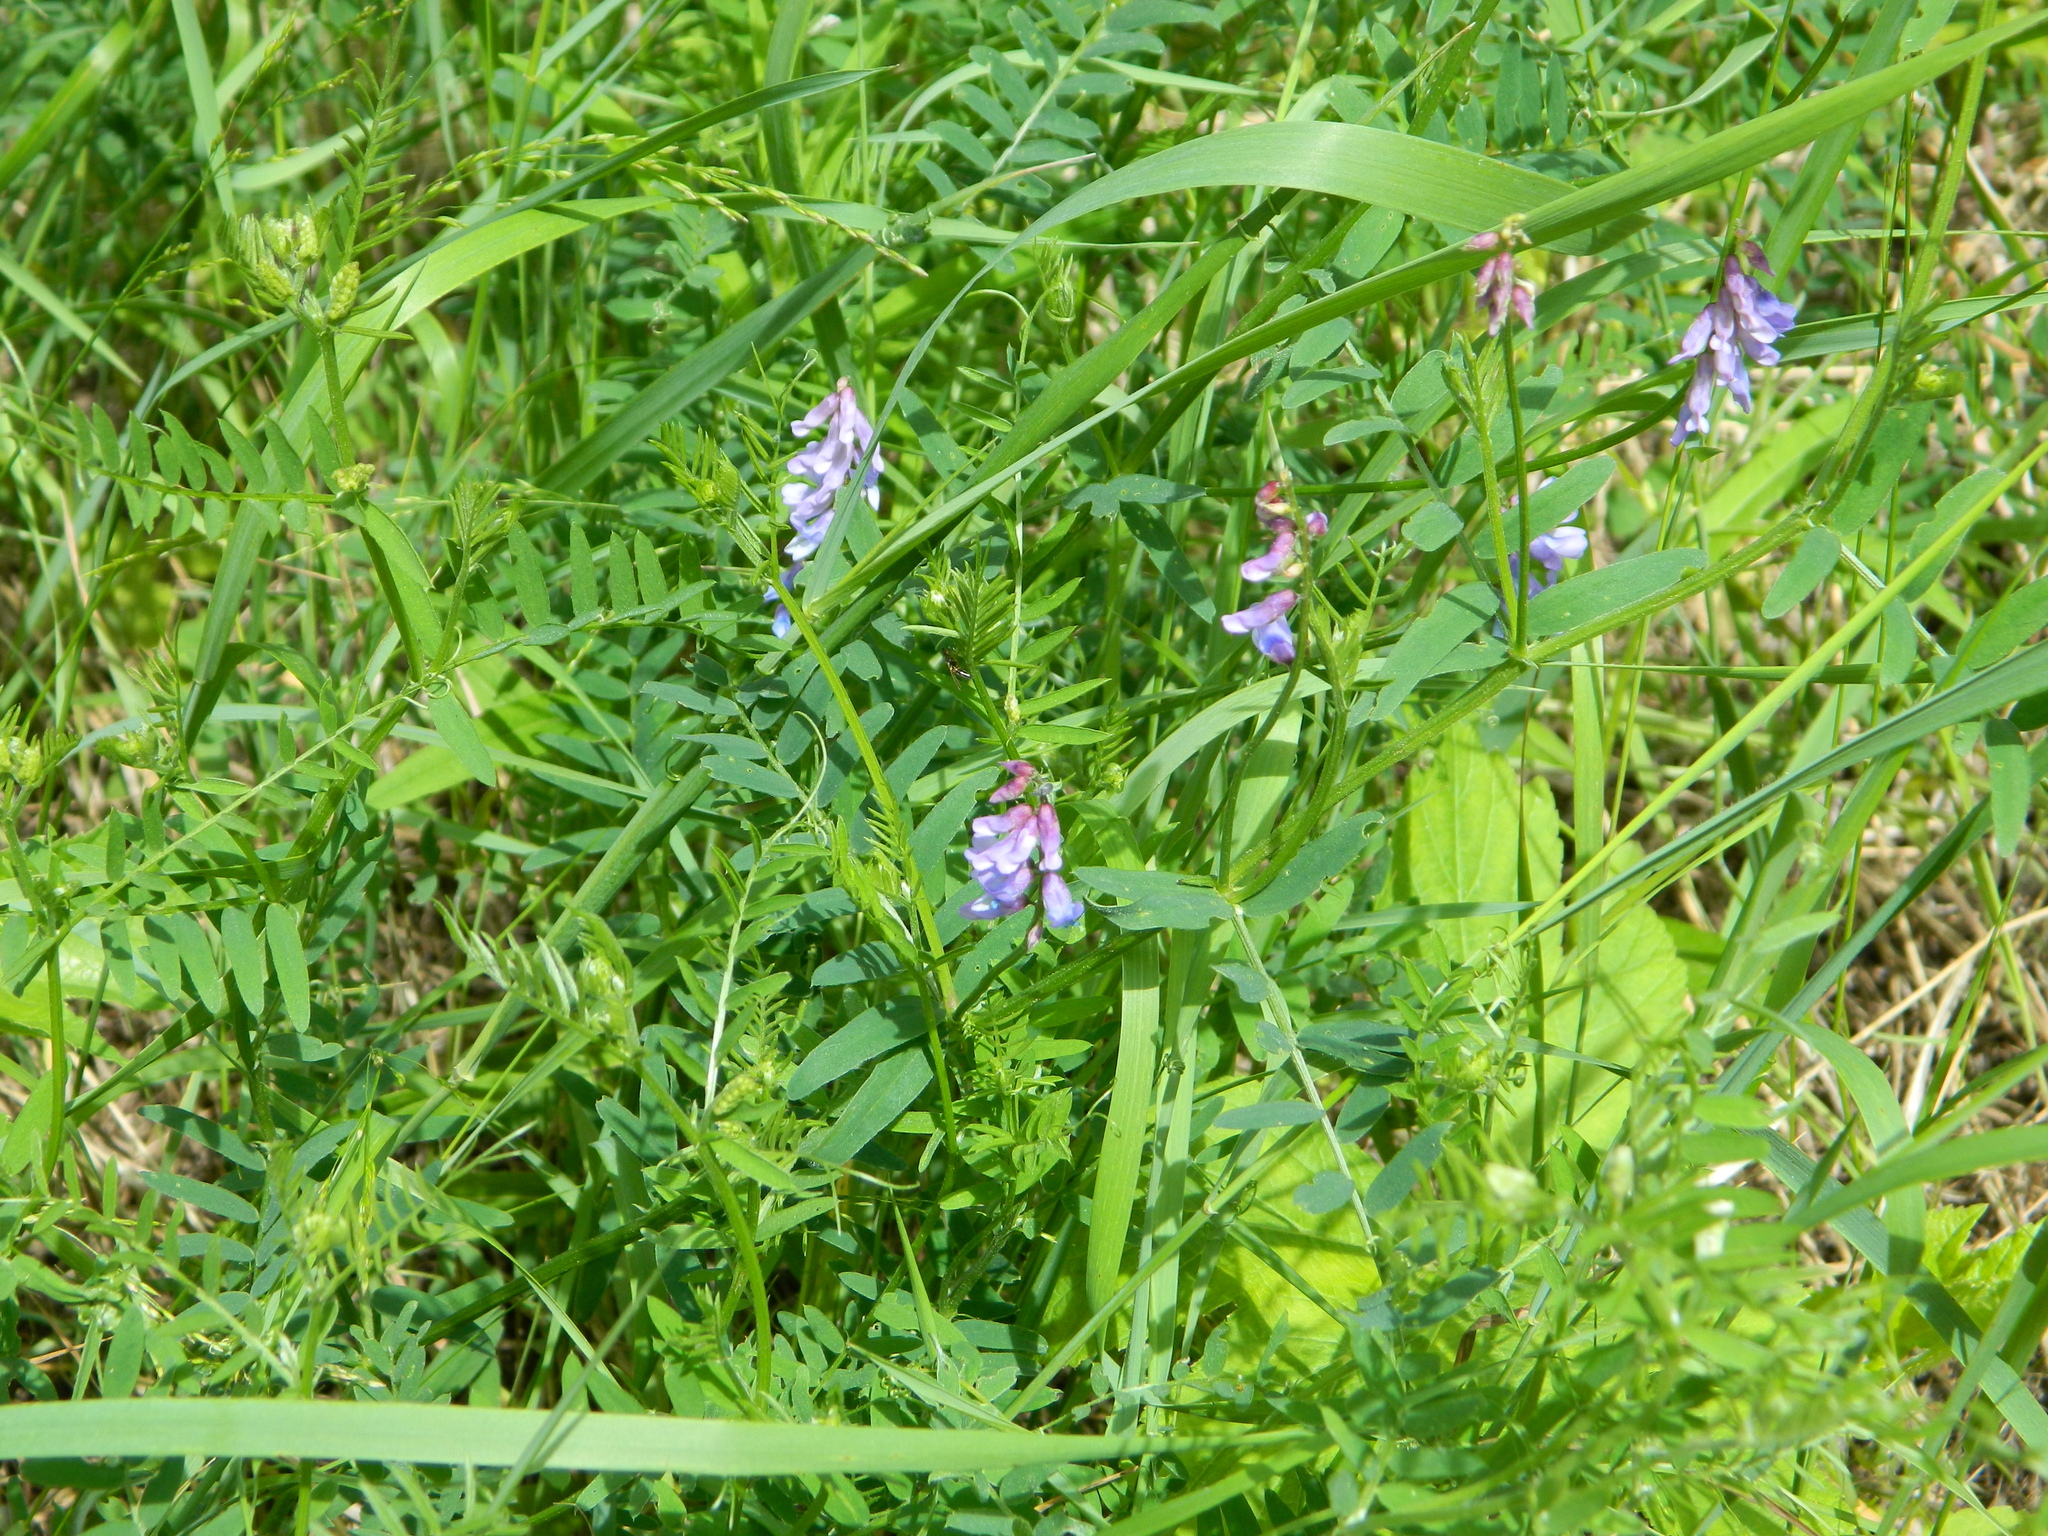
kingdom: Plantae
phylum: Tracheophyta
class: Magnoliopsida
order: Fabales
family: Fabaceae
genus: Vicia
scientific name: Vicia cracca
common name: Bird vetch
